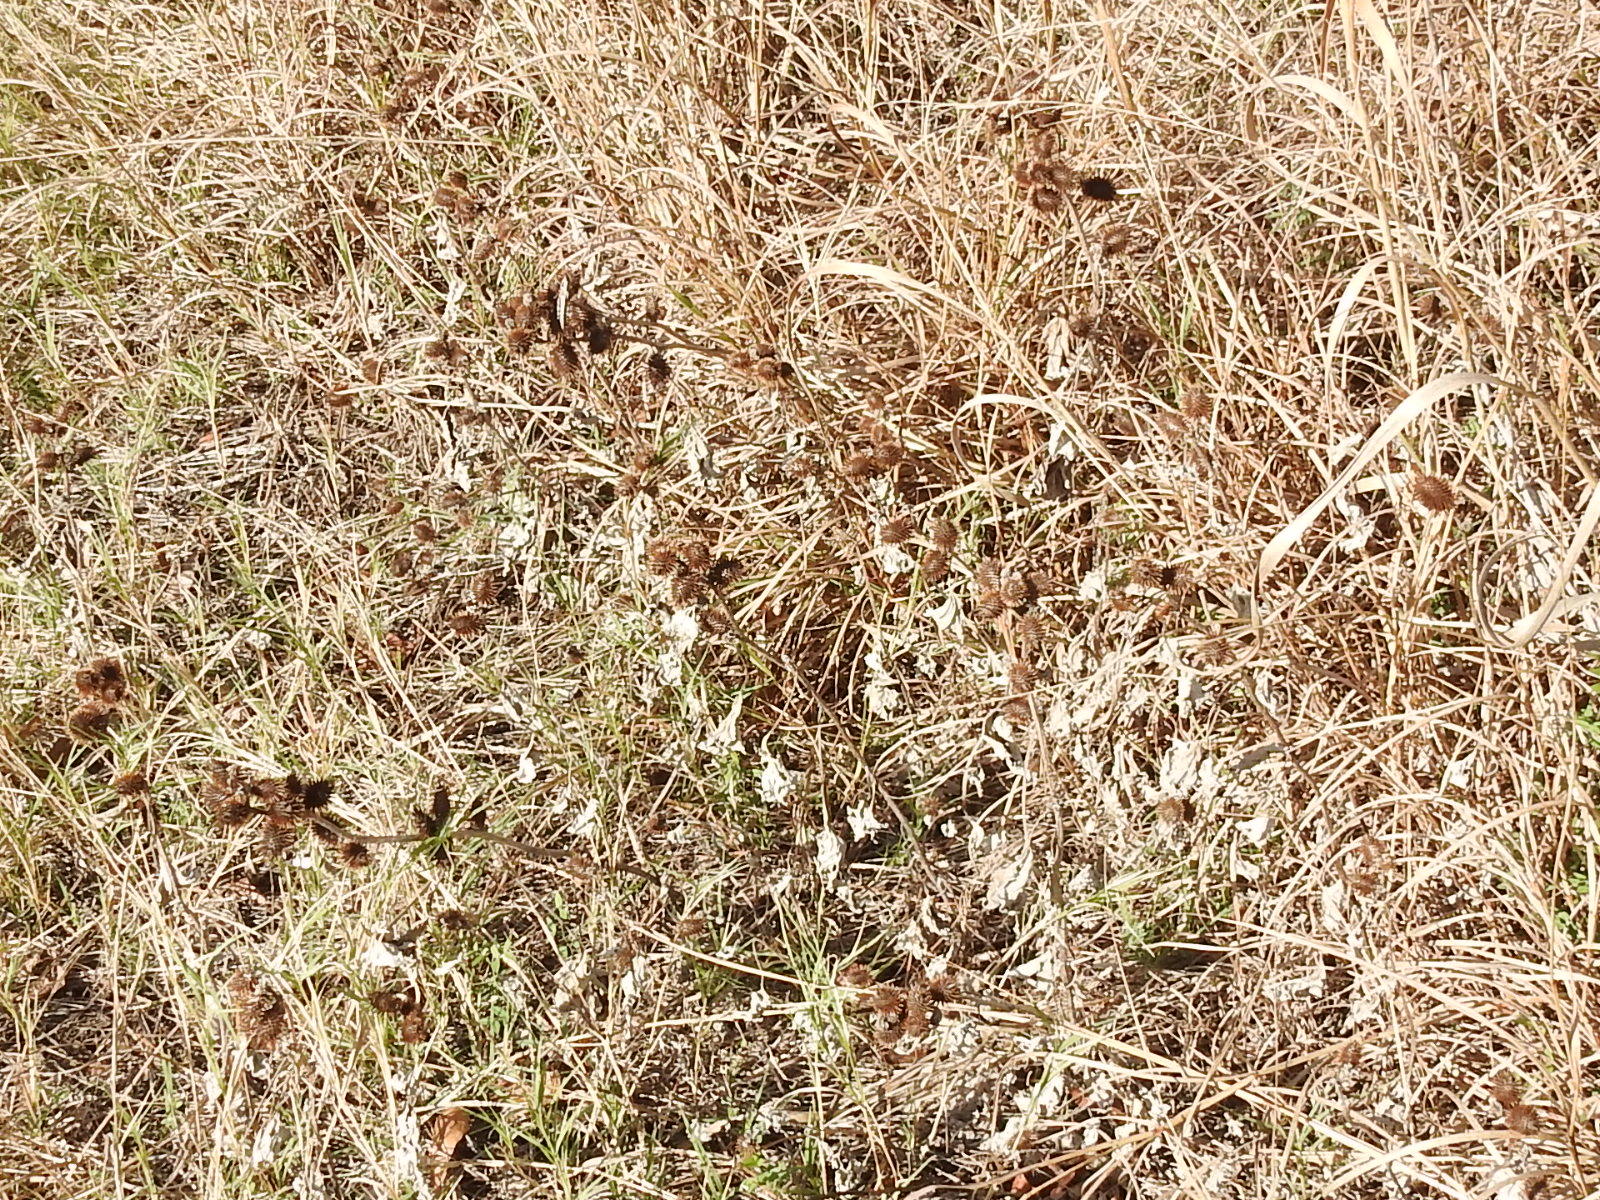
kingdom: Plantae
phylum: Tracheophyta
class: Magnoliopsida
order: Asterales
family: Asteraceae
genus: Xanthium
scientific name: Xanthium strumarium
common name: Rough cocklebur
